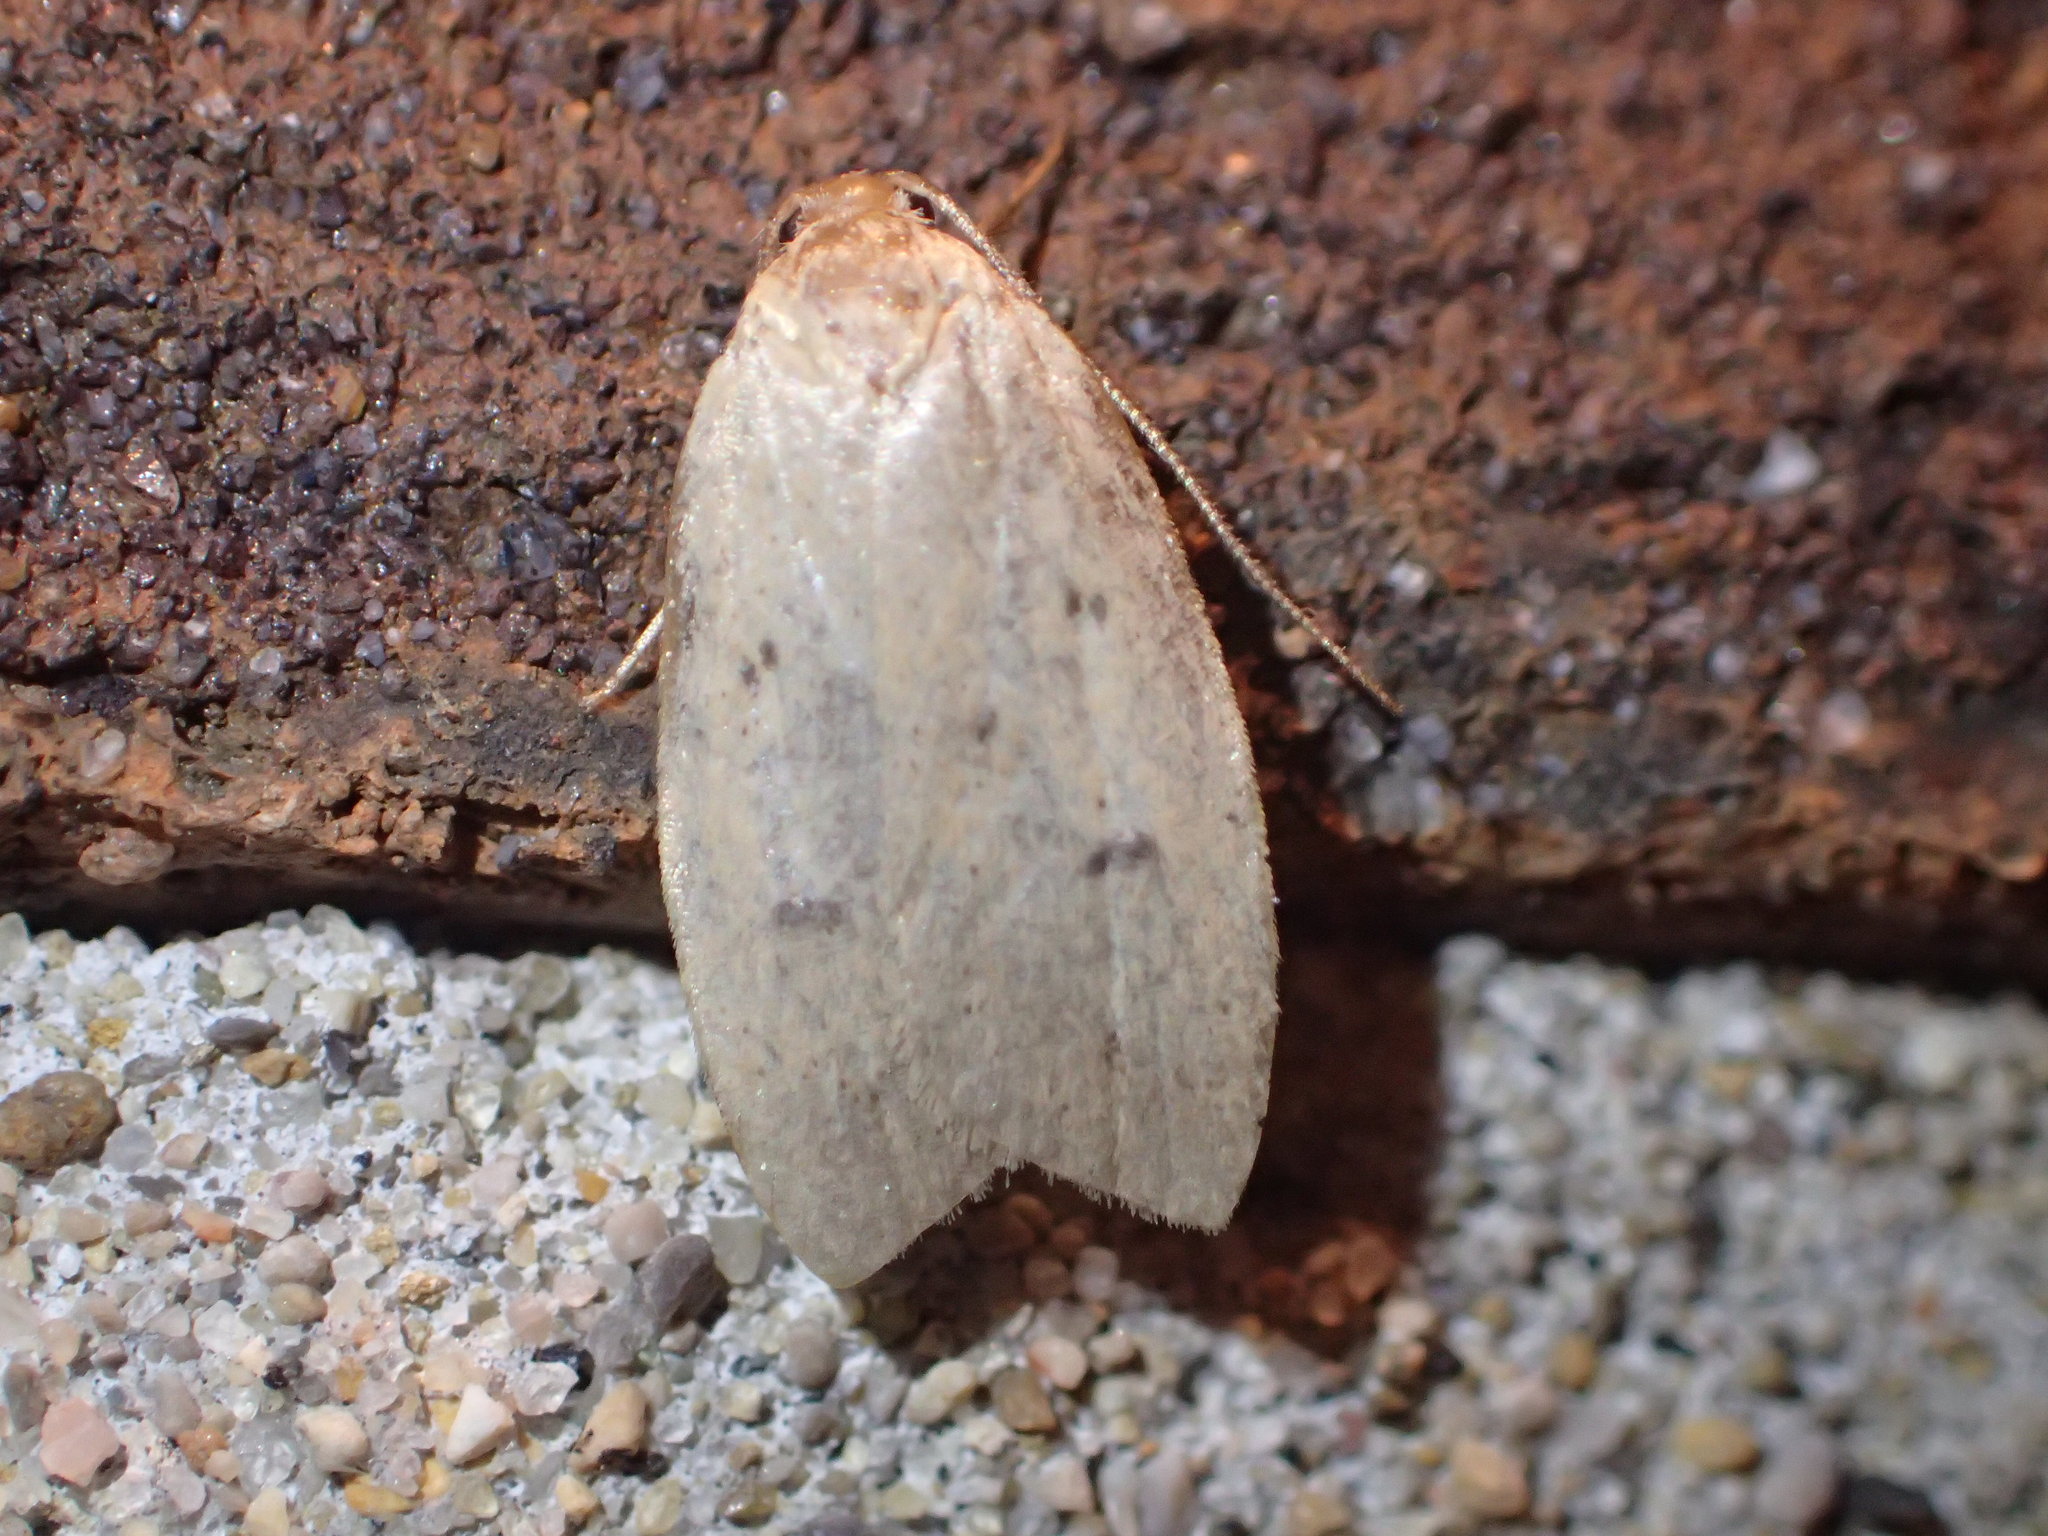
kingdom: Animalia
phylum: Arthropoda
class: Insecta
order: Lepidoptera
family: Peleopodidae
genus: Machimia
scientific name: Machimia tentoriferella
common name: Gold-striped leaftier moth
